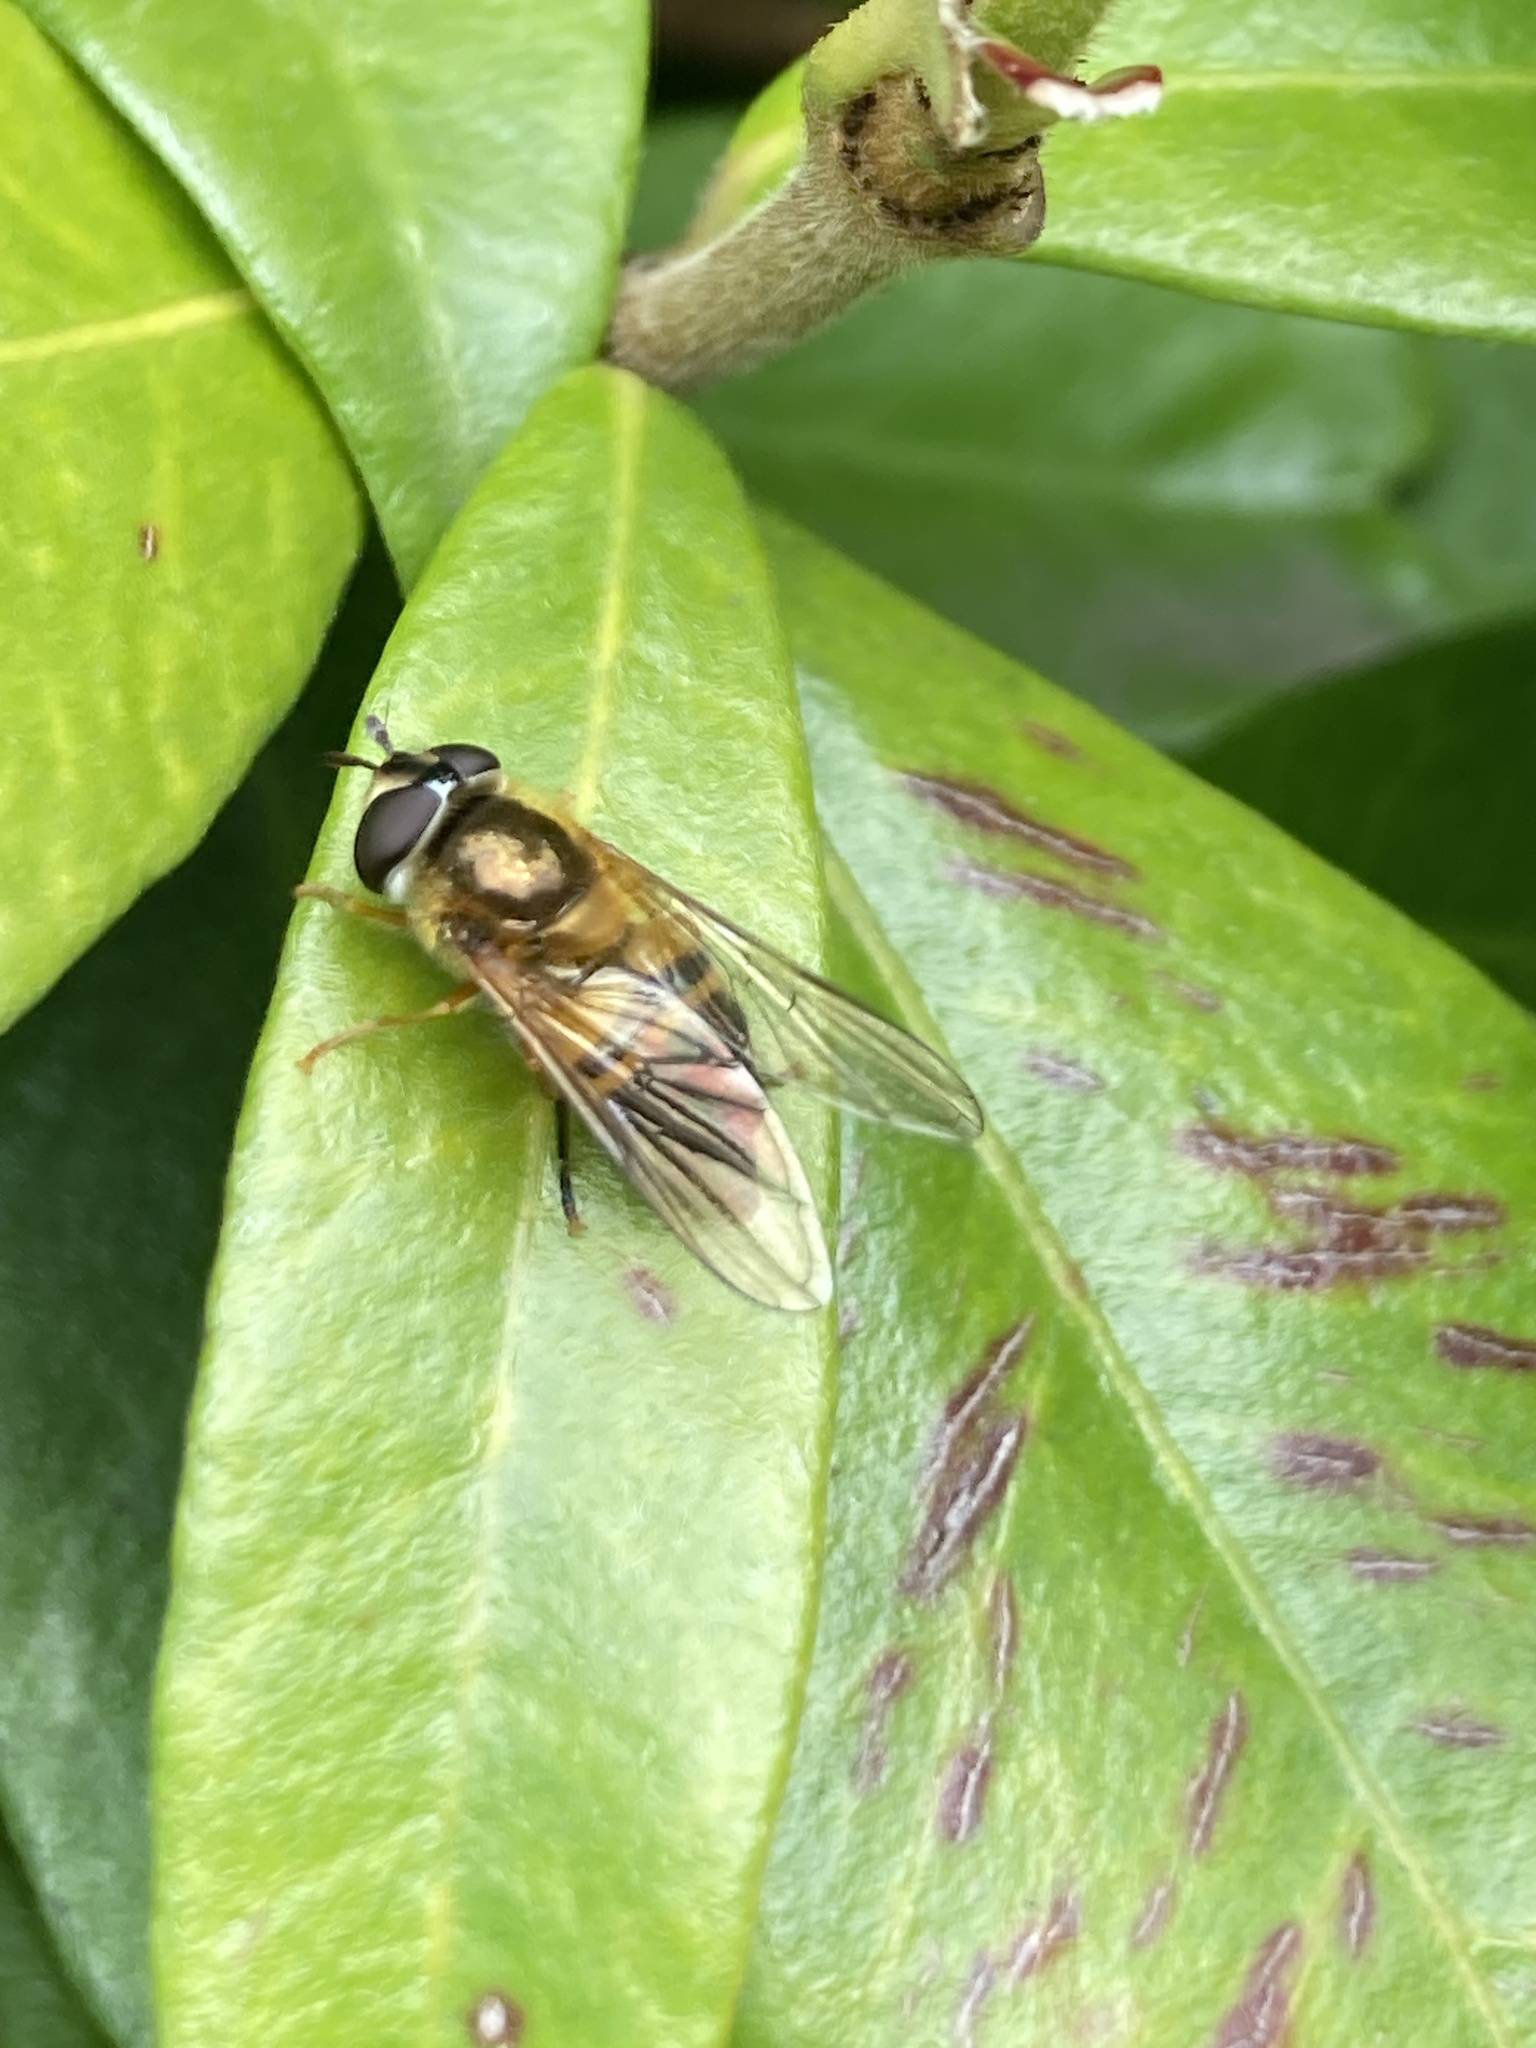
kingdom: Animalia
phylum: Arthropoda
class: Insecta
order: Diptera
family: Syrphidae
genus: Epistrophe
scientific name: Epistrophe eligans
